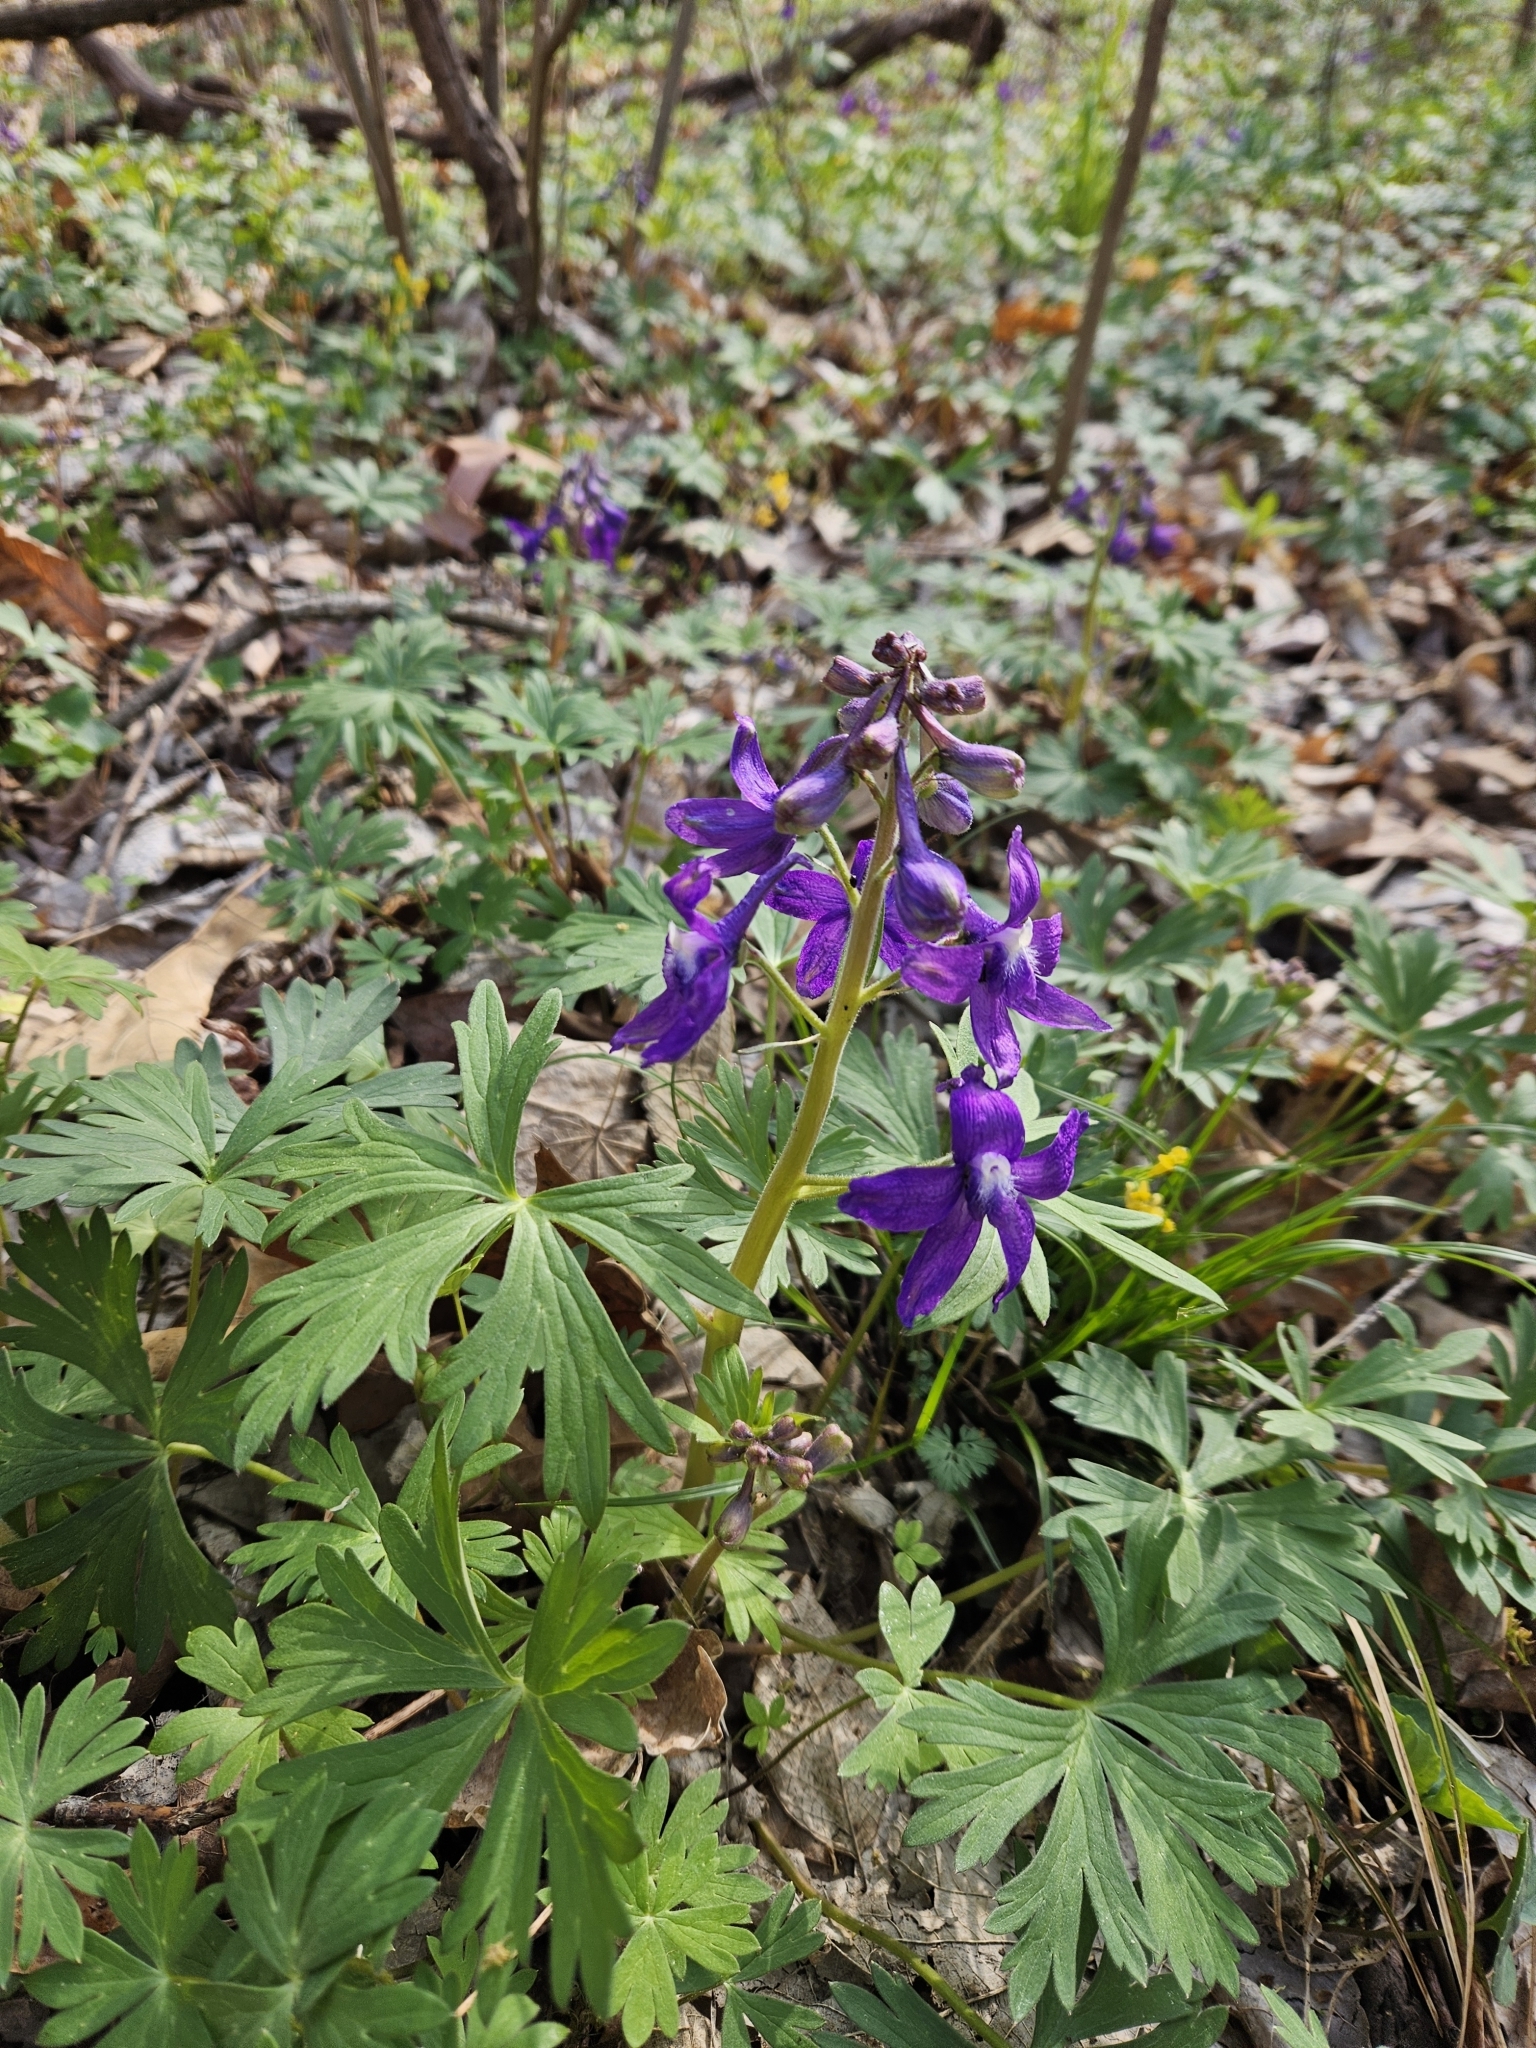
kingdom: Plantae
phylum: Tracheophyta
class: Magnoliopsida
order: Ranunculales
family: Ranunculaceae
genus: Delphinium
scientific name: Delphinium tricorne
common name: Dwarf larkspur
